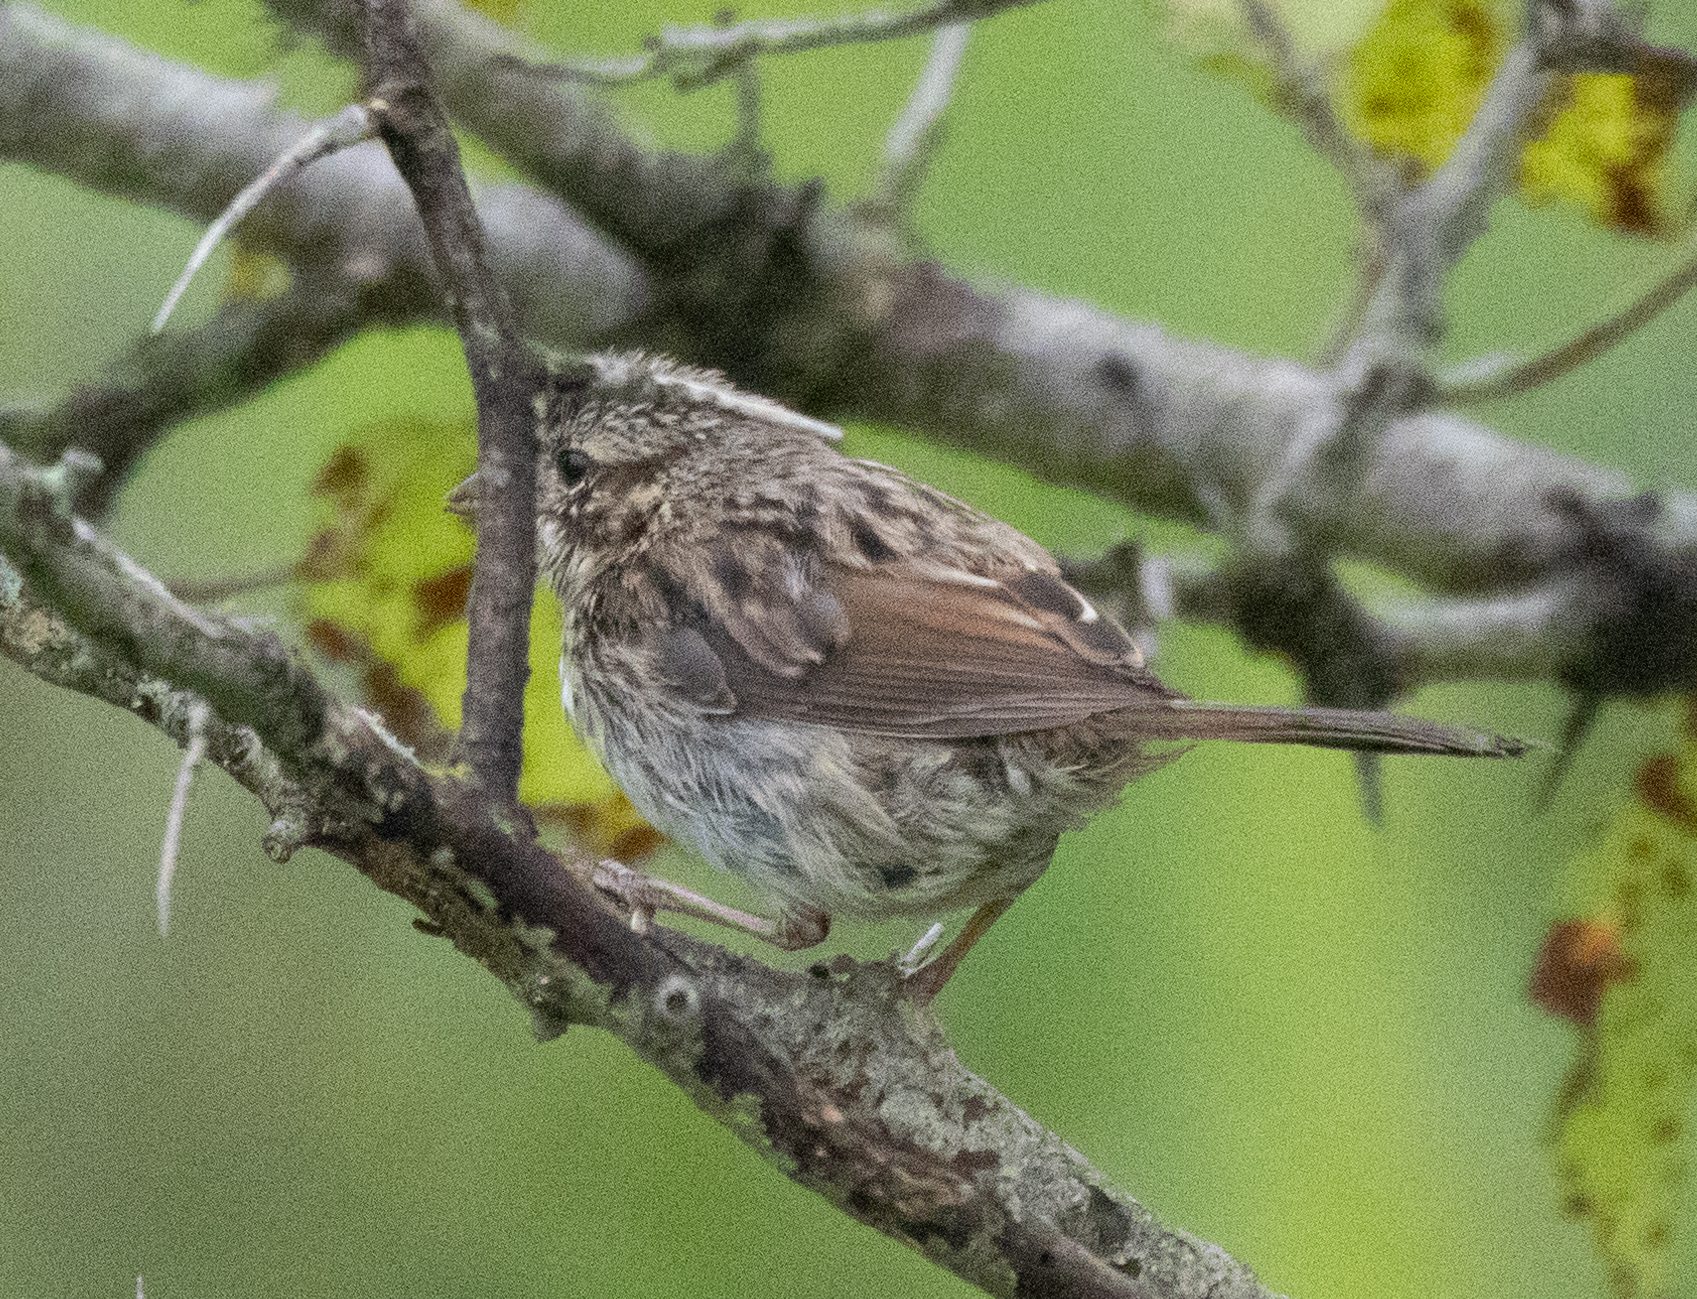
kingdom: Animalia
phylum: Chordata
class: Aves
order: Passeriformes
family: Passerellidae
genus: Melospiza
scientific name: Melospiza melodia
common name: Song sparrow
